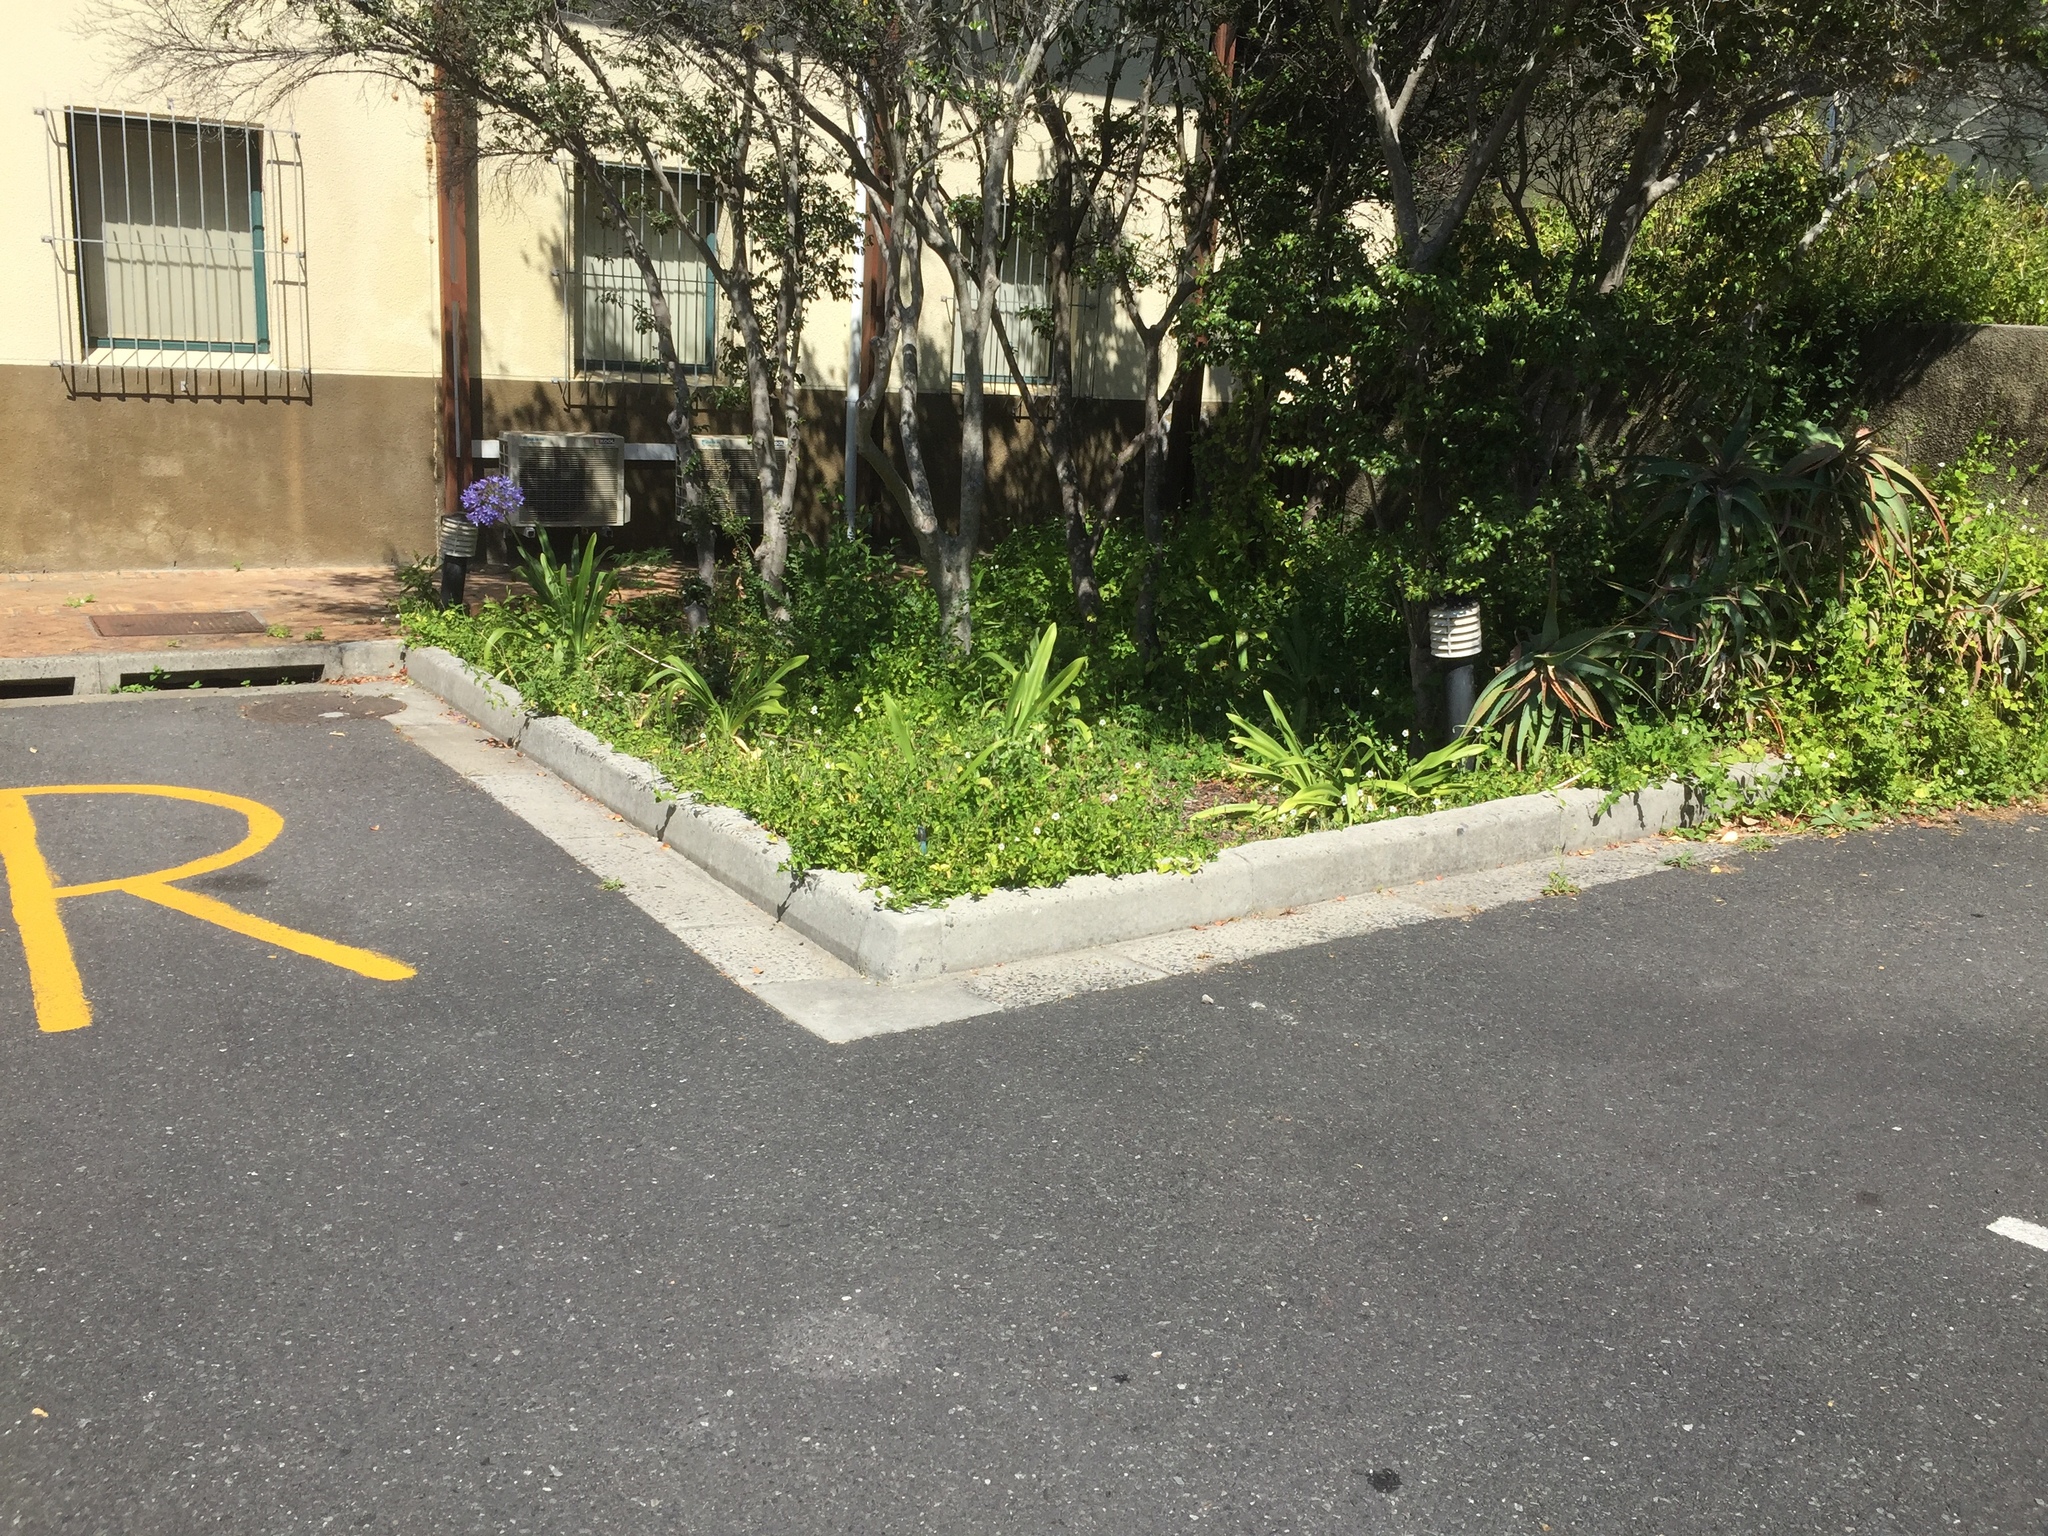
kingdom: Plantae
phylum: Tracheophyta
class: Magnoliopsida
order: Lamiales
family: Acanthaceae
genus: Asystasia
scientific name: Asystasia intrusa
